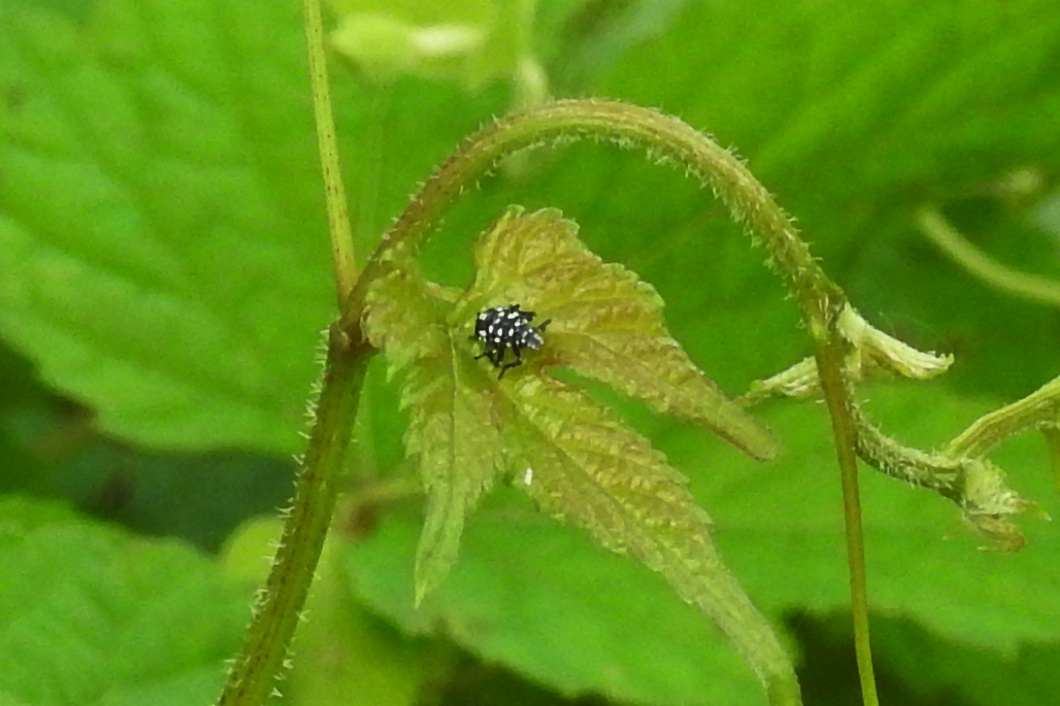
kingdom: Animalia
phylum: Arthropoda
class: Insecta
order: Hemiptera
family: Fulgoridae
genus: Lycorma
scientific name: Lycorma delicatula
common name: Spotted lanternfly
